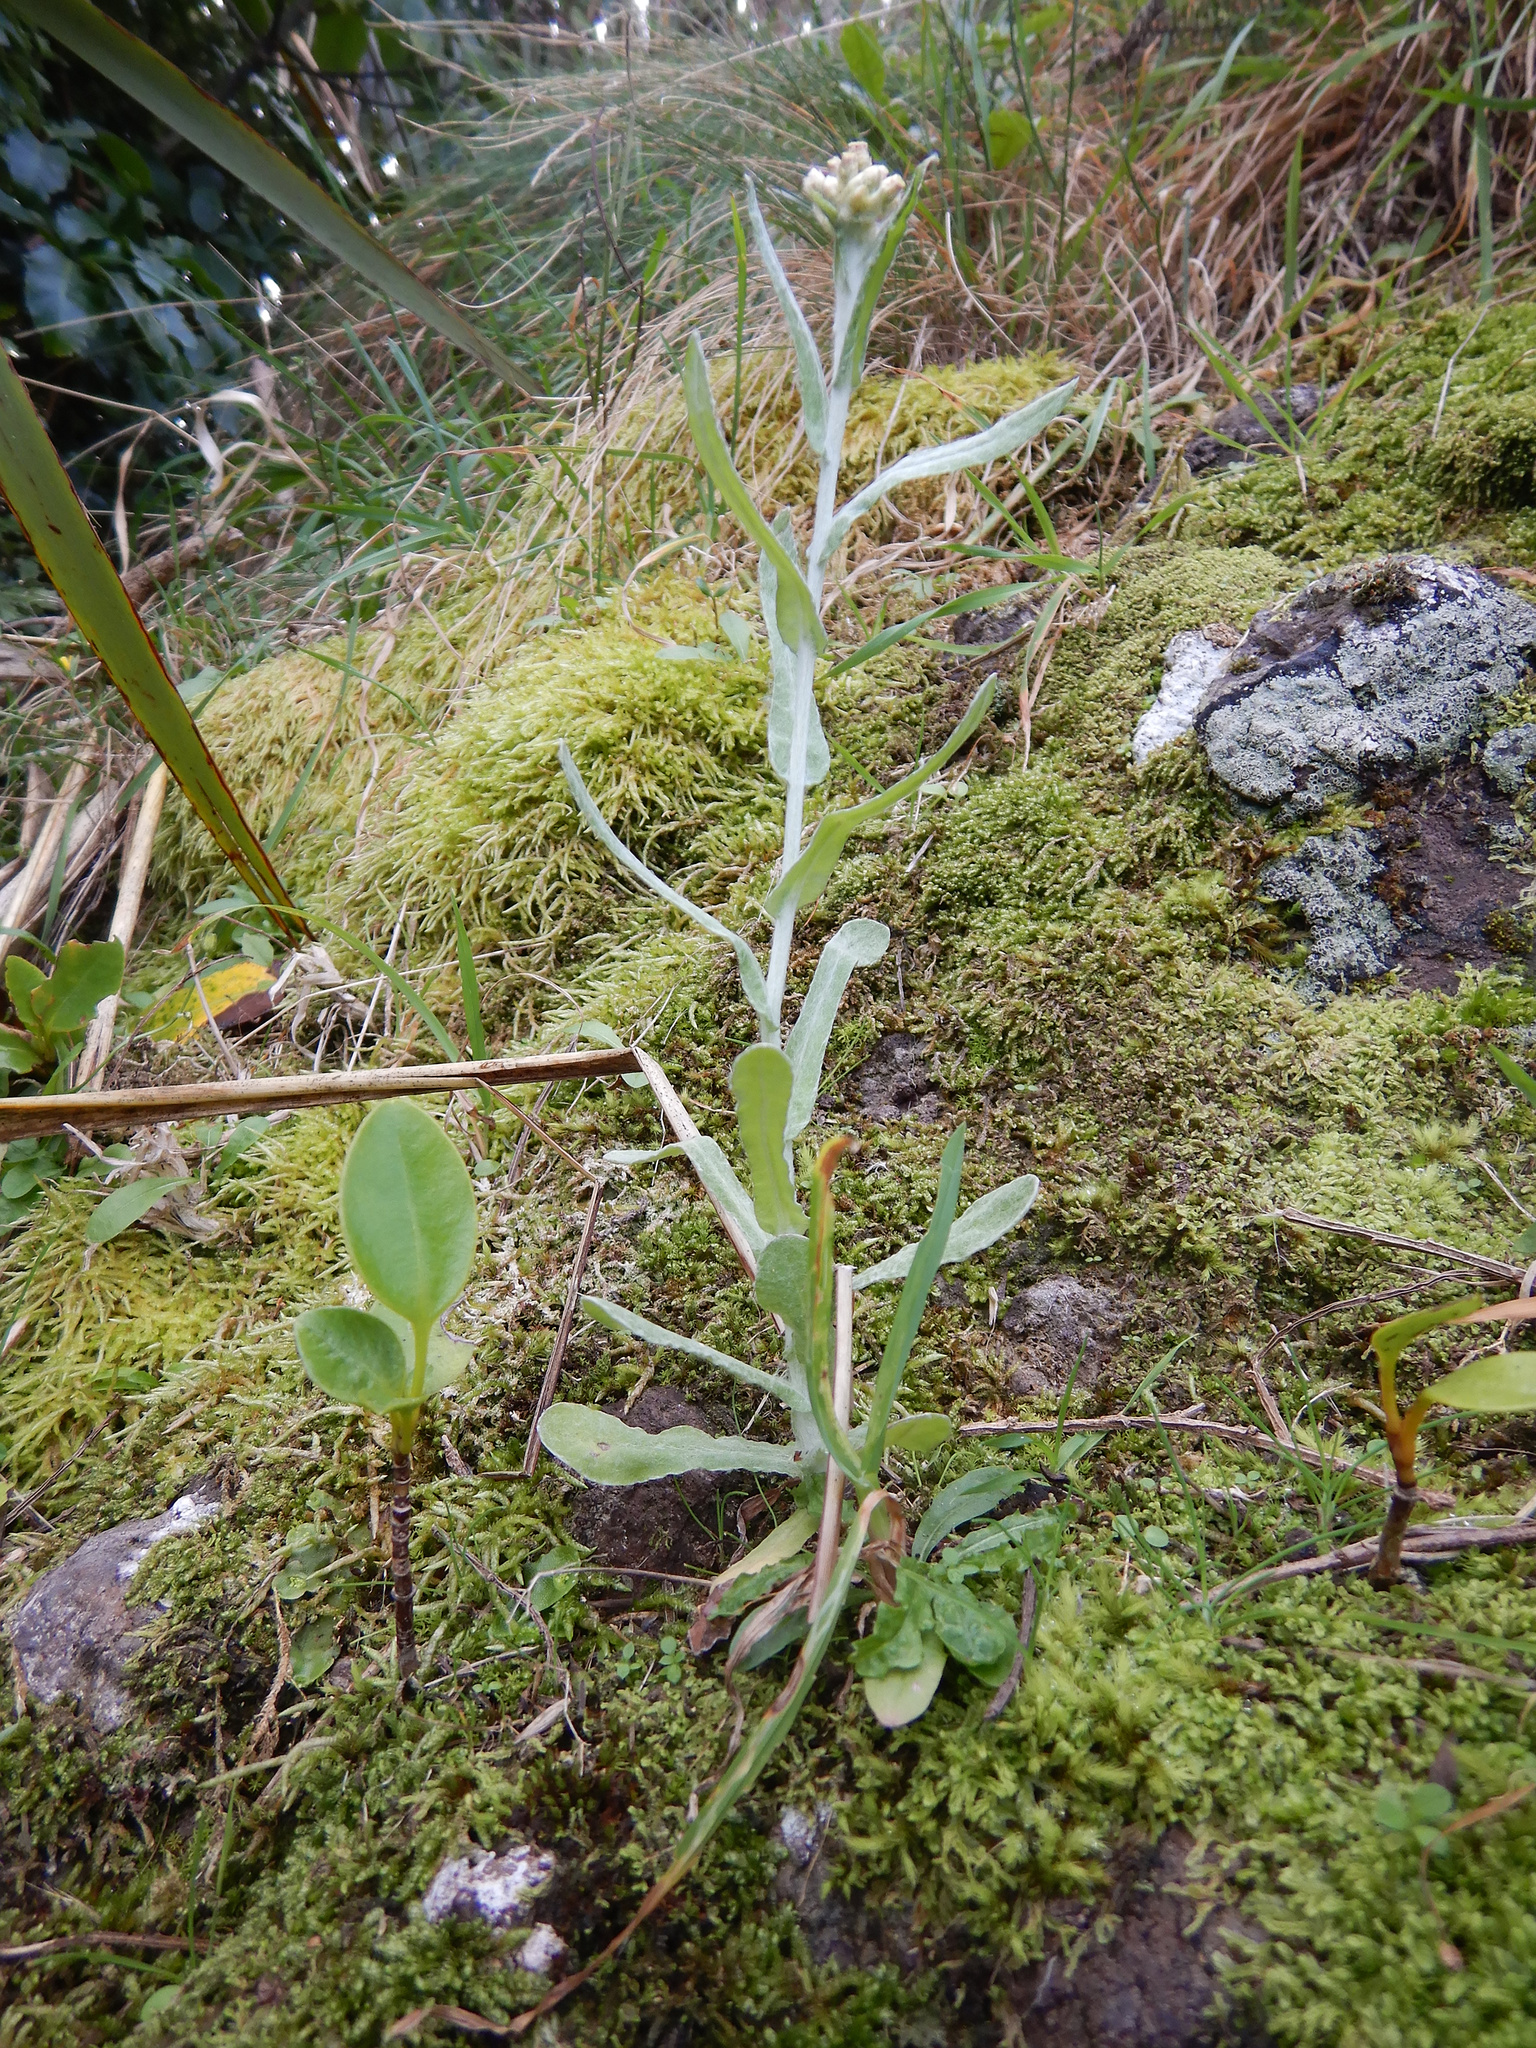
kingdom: Plantae
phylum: Tracheophyta
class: Magnoliopsida
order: Asterales
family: Asteraceae
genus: Helichrysum
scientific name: Helichrysum luteoalbum
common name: Daisy
